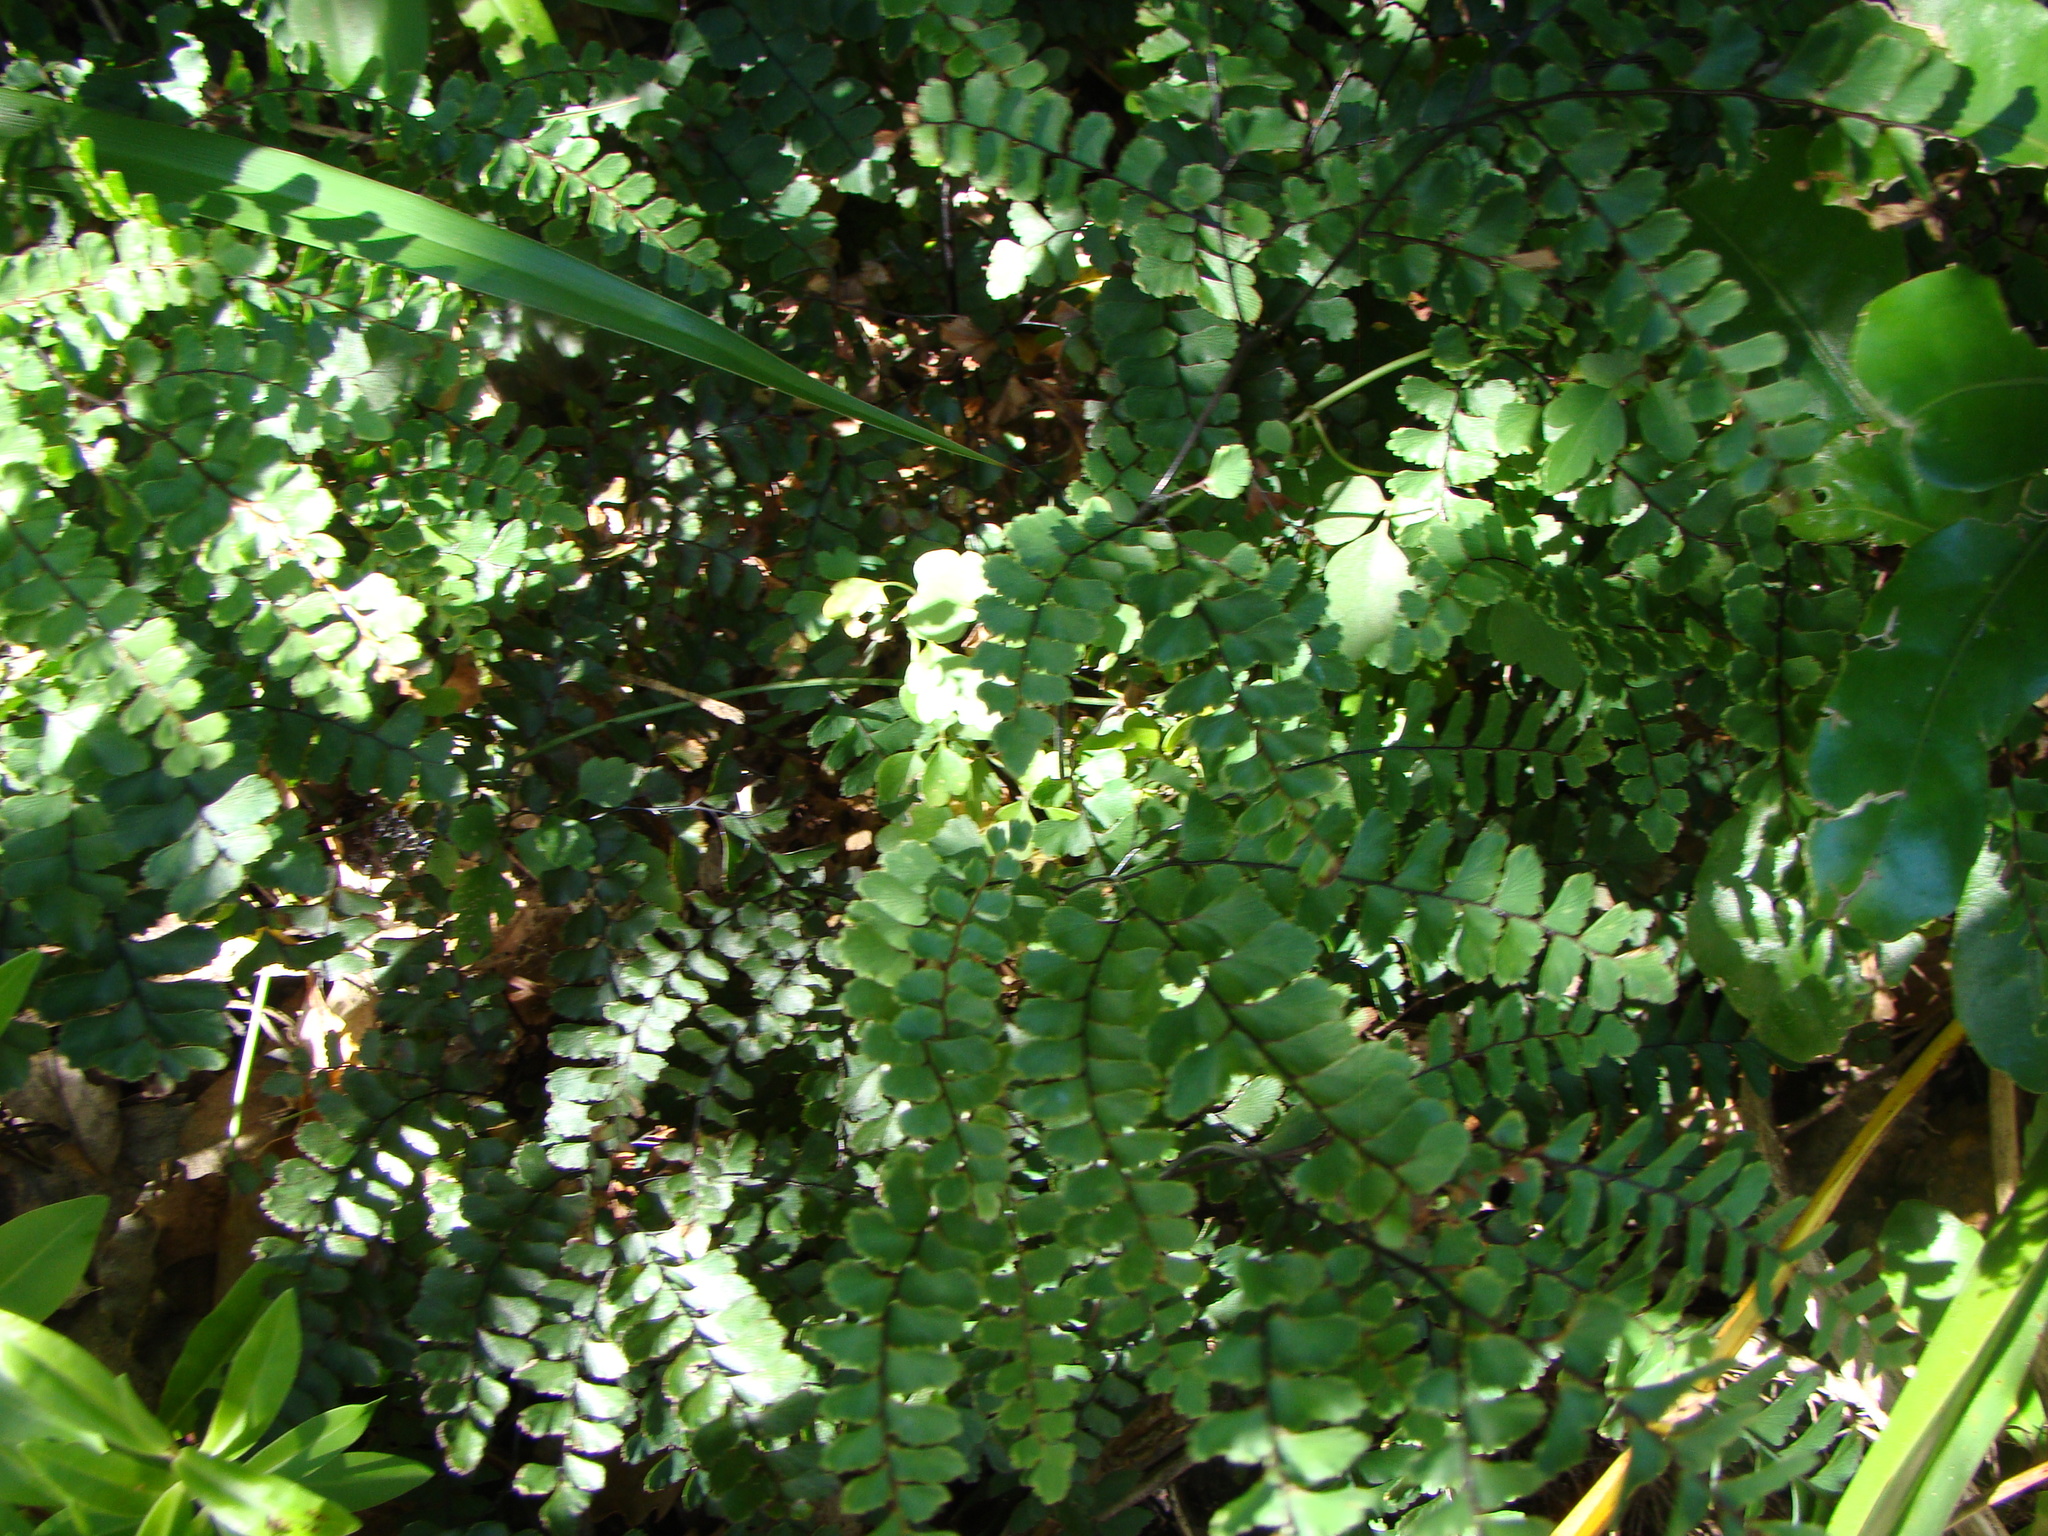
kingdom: Plantae
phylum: Tracheophyta
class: Polypodiopsida
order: Polypodiales
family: Pteridaceae
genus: Adiantum
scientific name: Adiantum cunninghamii
